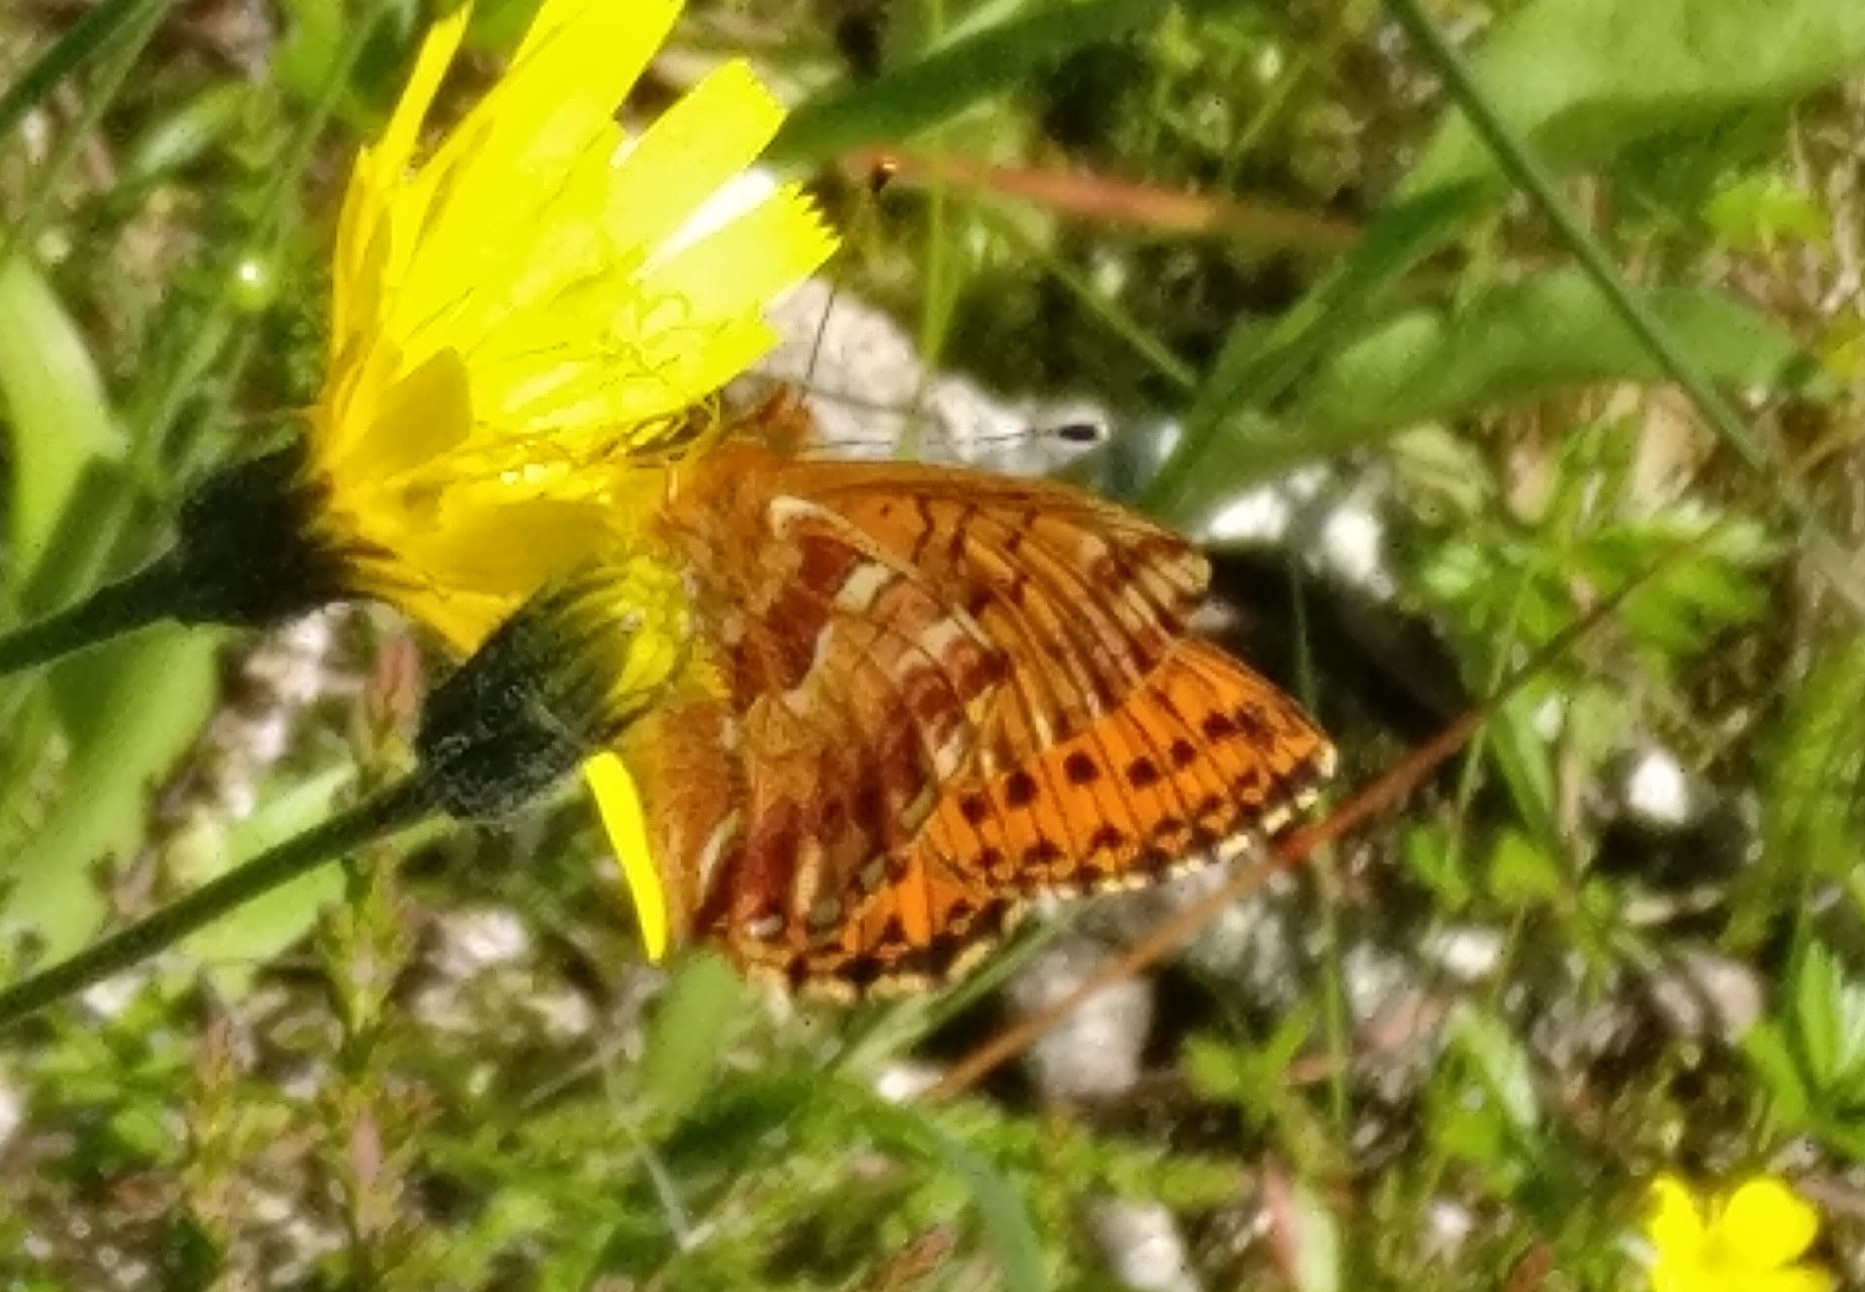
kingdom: Animalia
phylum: Arthropoda
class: Insecta
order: Lepidoptera
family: Nymphalidae
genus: Boloria
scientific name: Boloria aquilonaris
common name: Cranberry fritillary
